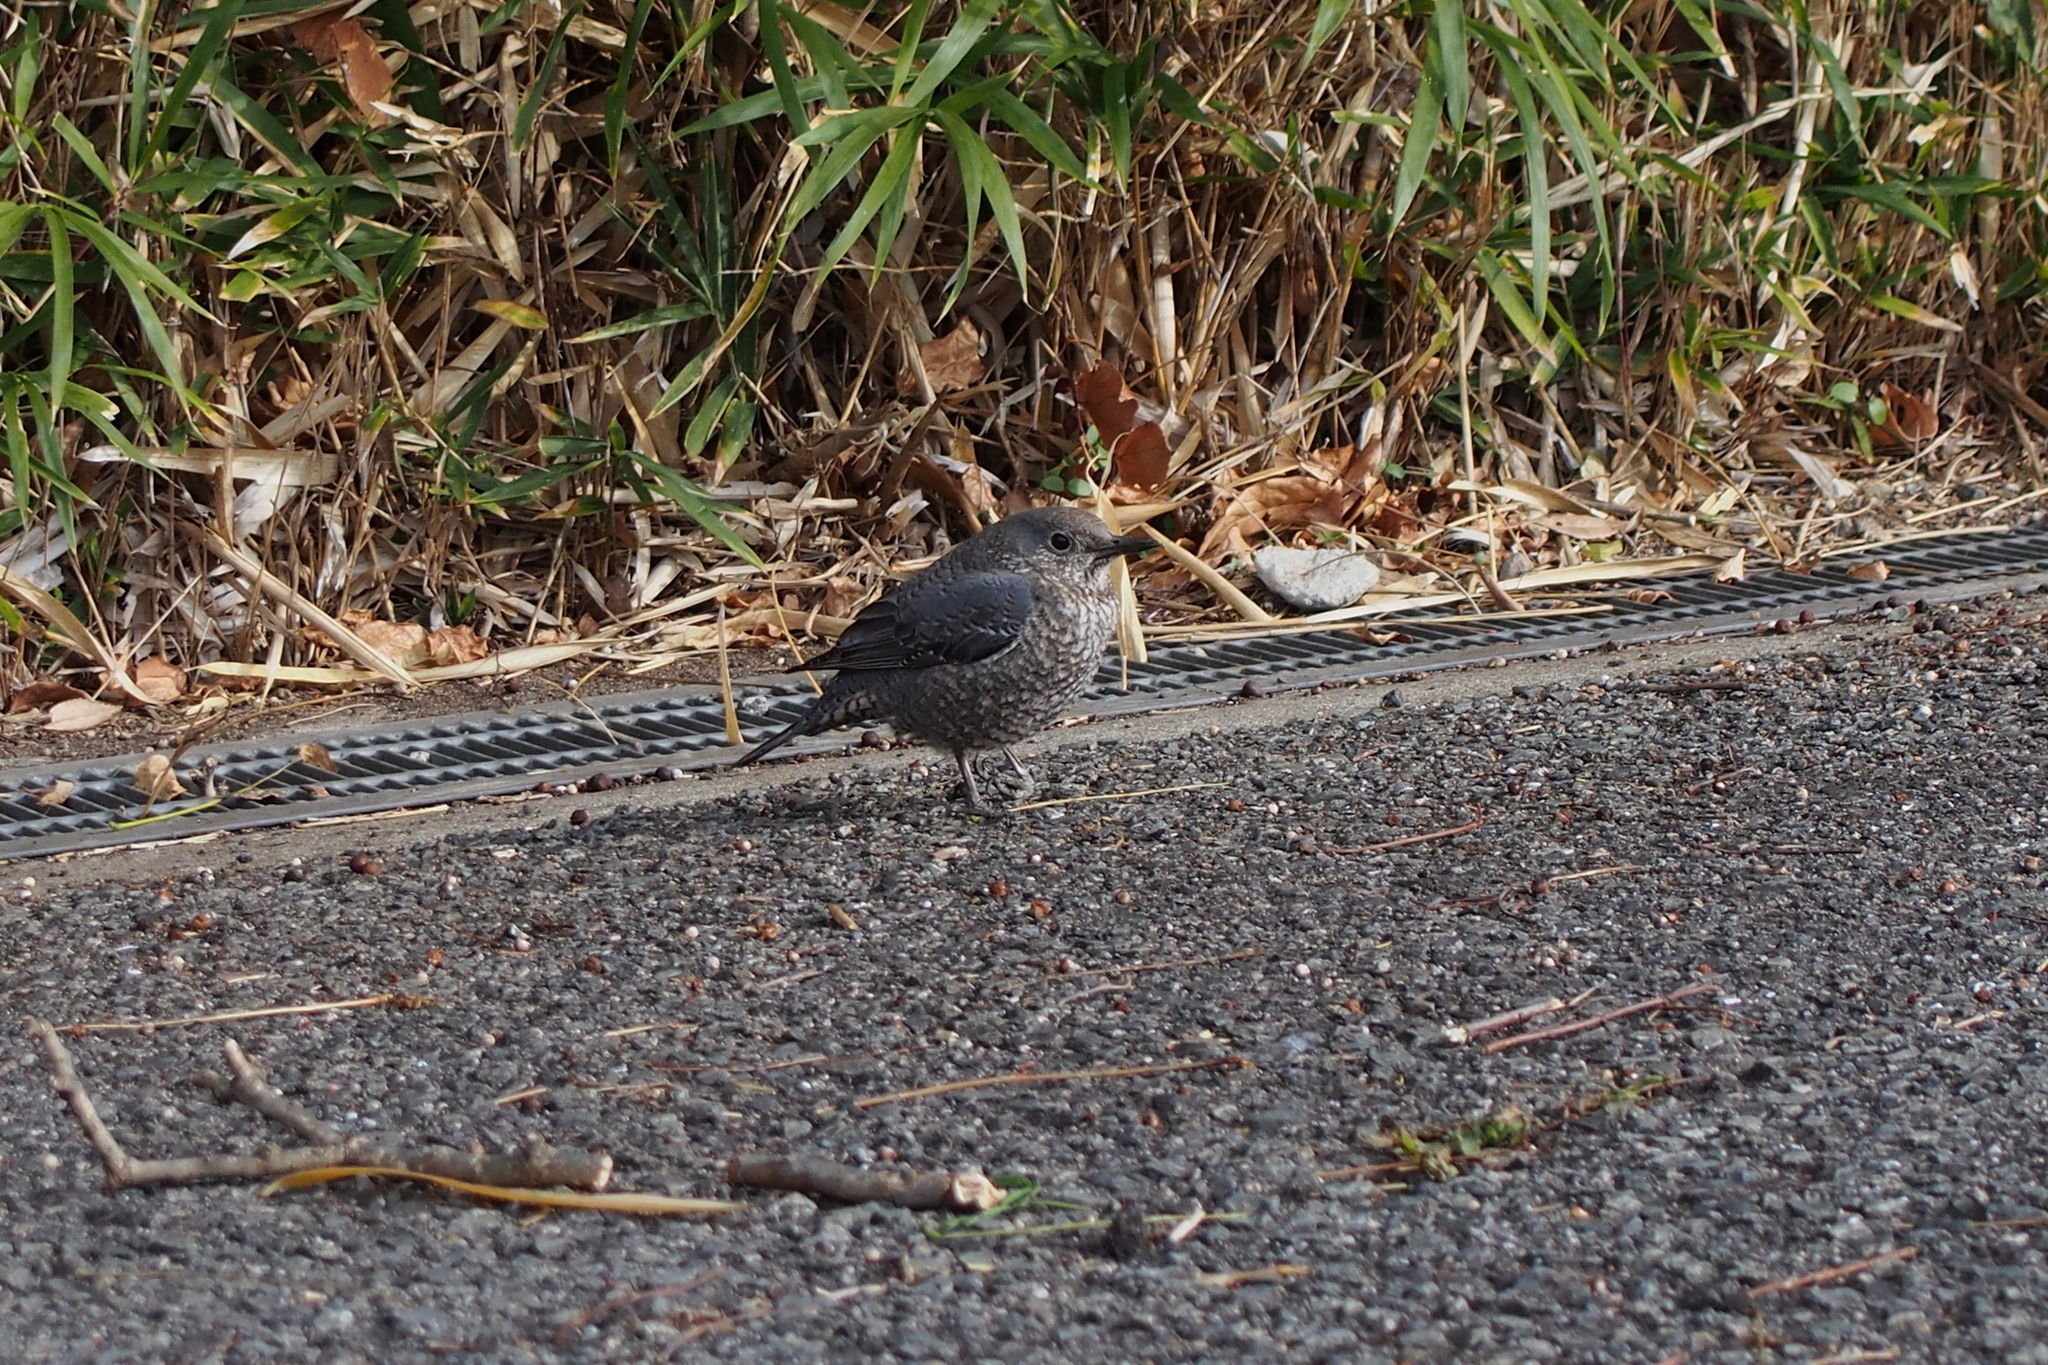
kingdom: Animalia
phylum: Chordata
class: Aves
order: Passeriformes
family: Muscicapidae
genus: Monticola
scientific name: Monticola solitarius
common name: Blue rock thrush
